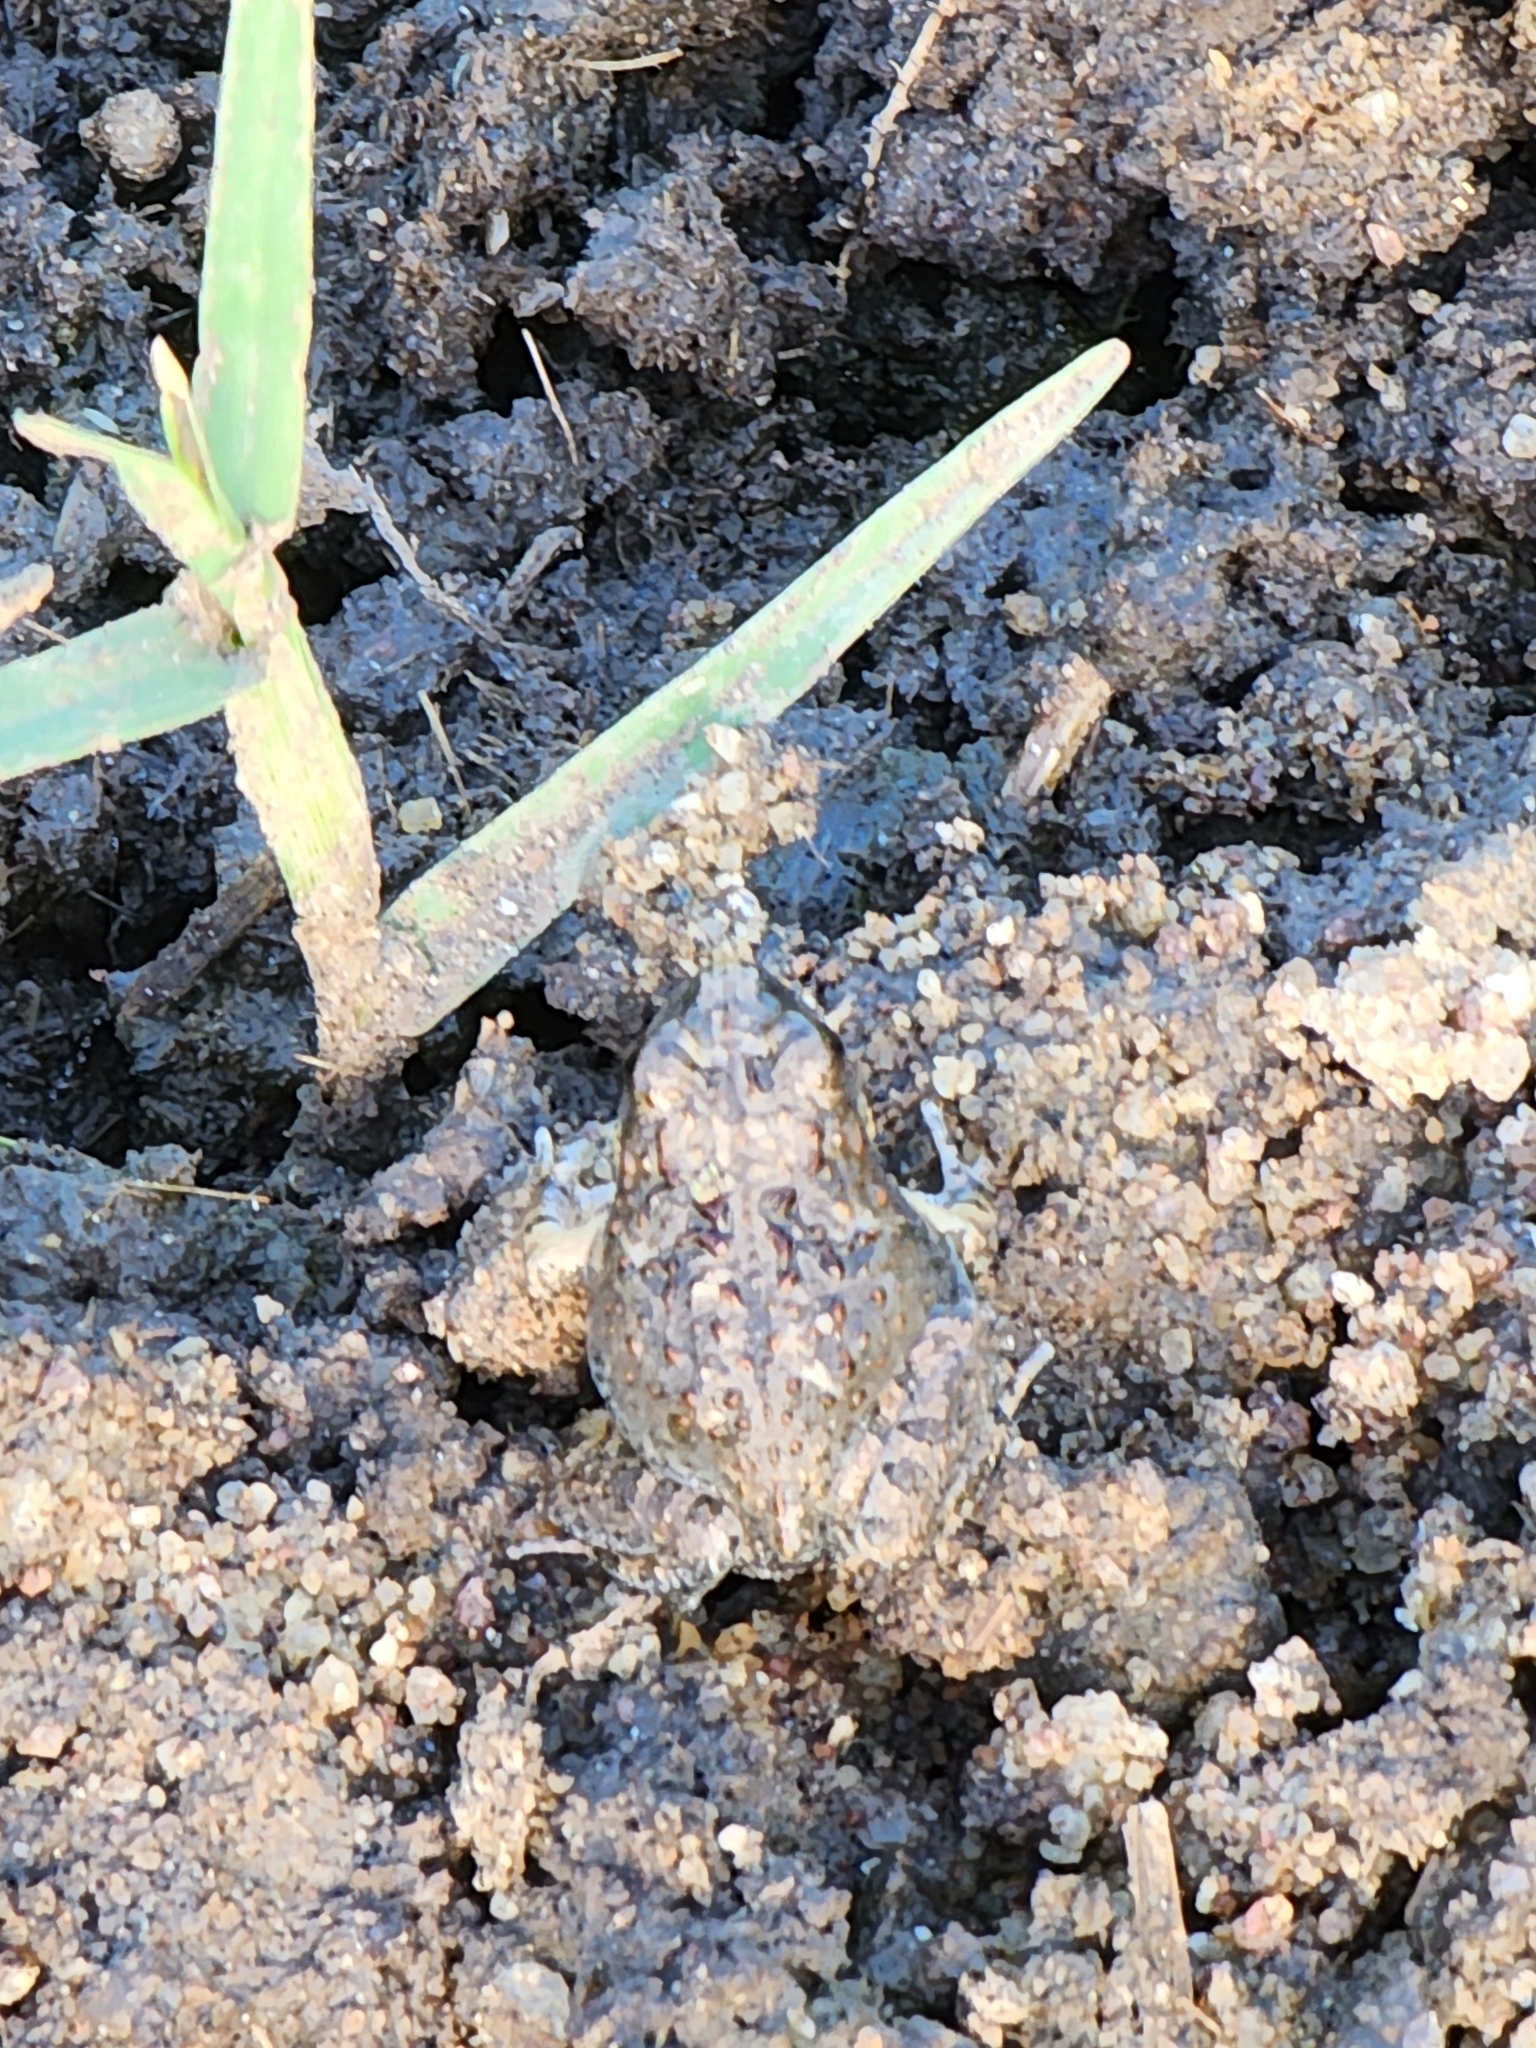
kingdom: Animalia
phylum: Chordata
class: Amphibia
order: Anura
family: Limnodynastidae
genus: Platyplectrum
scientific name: Platyplectrum ornatum
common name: Ornate burrowing frog
